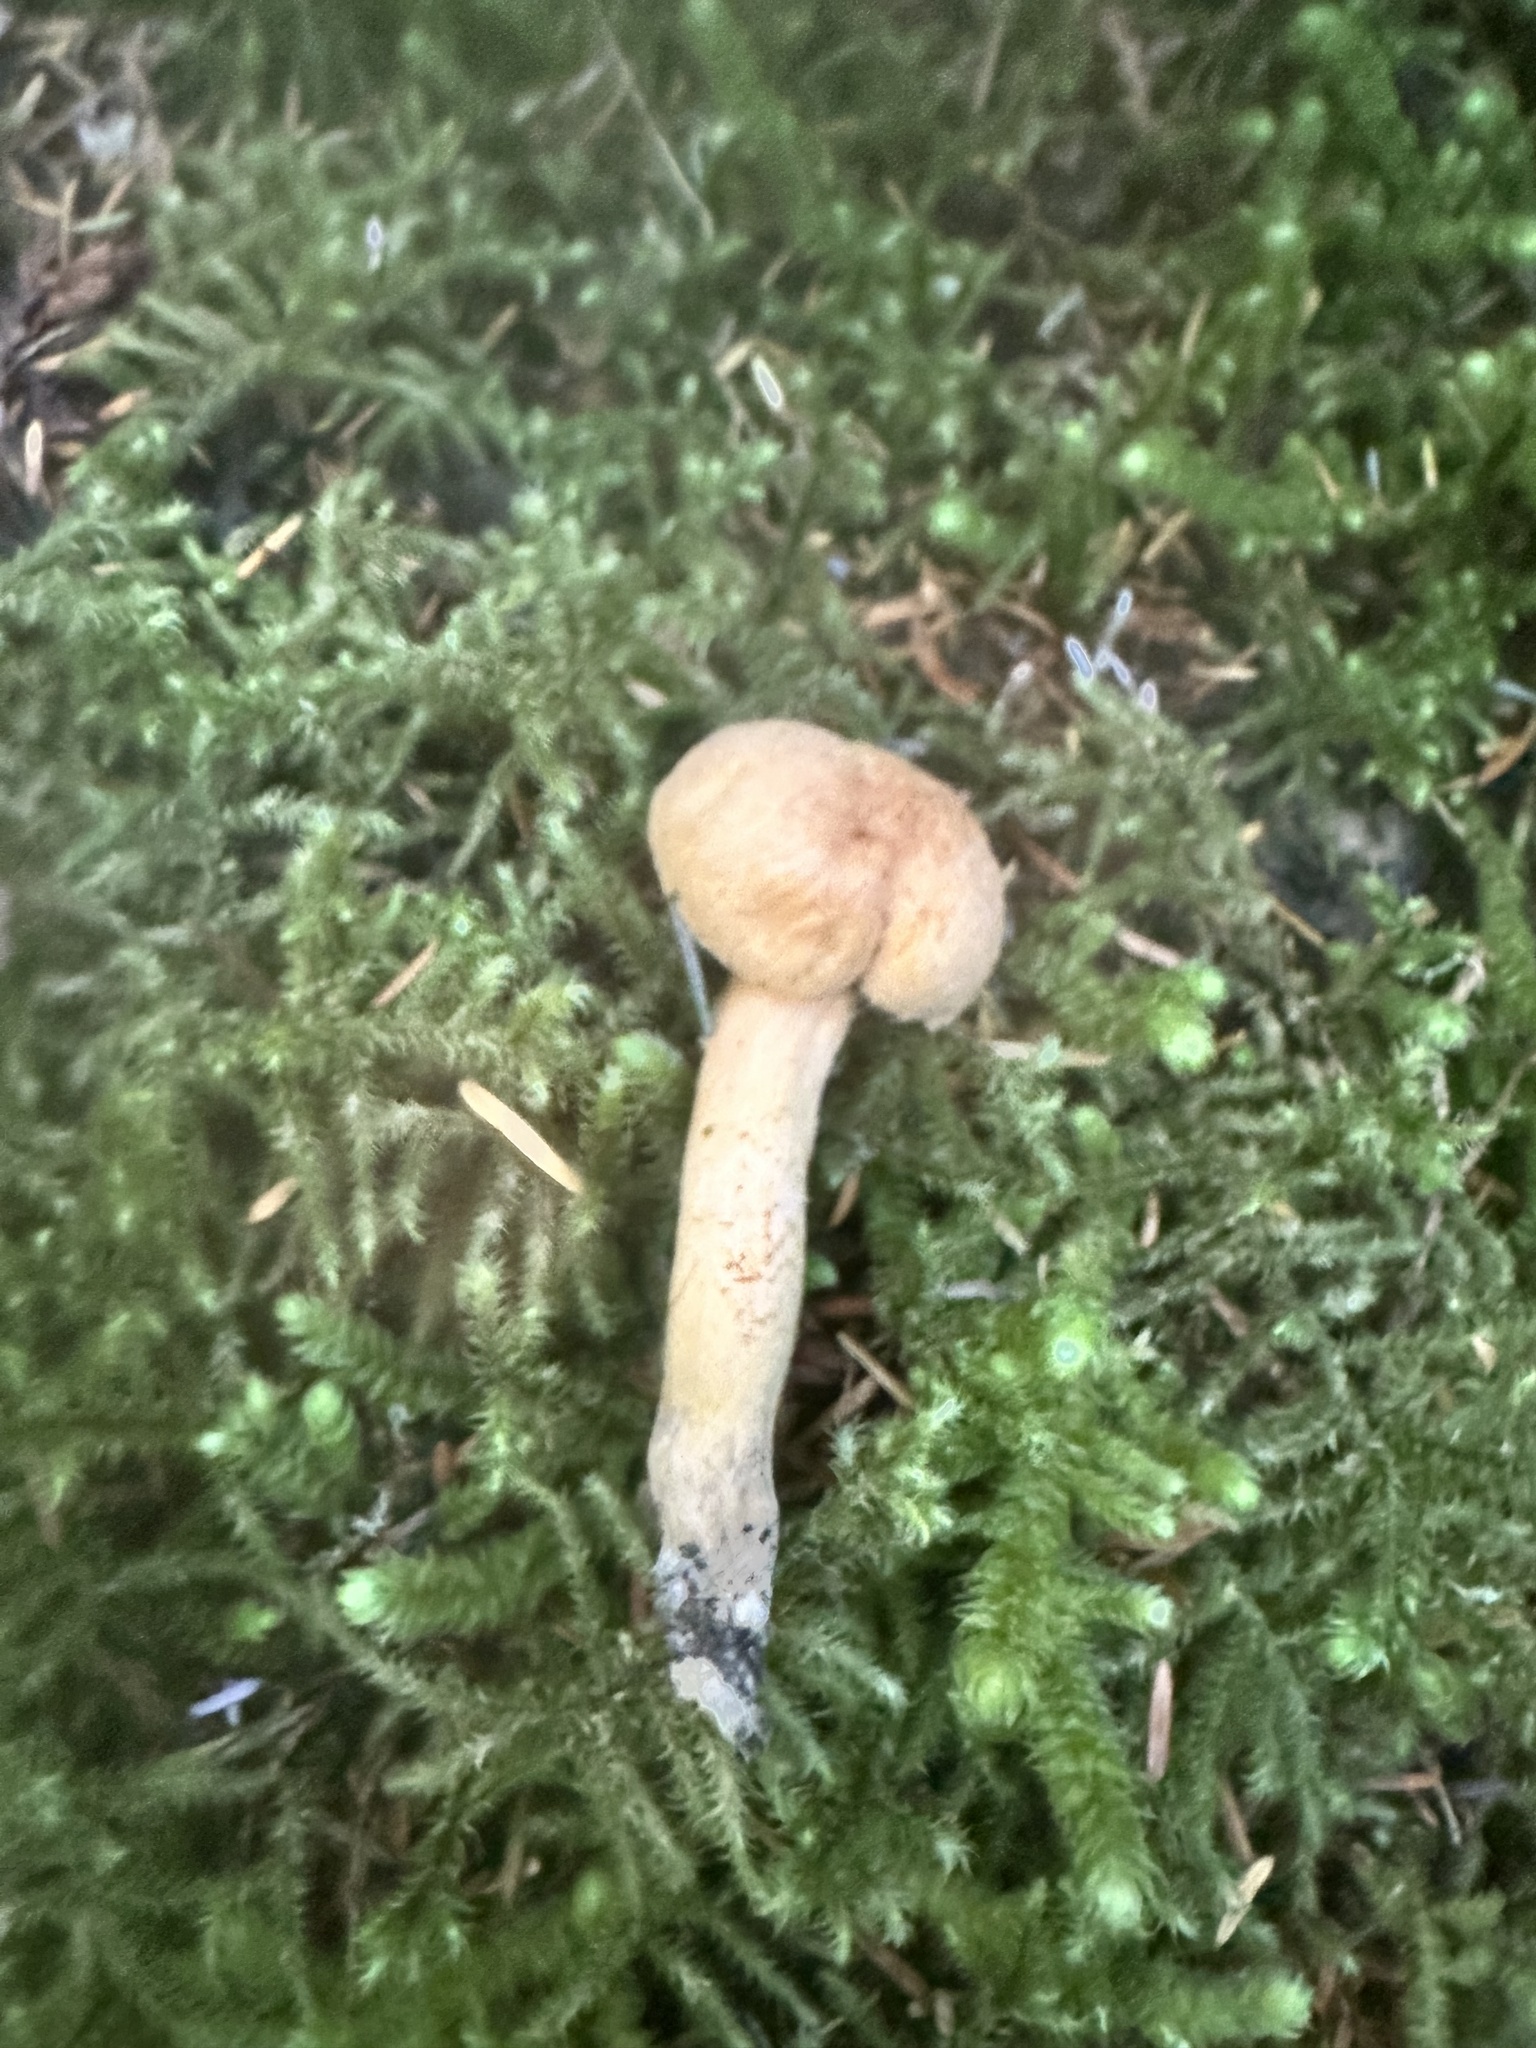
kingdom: Fungi
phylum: Basidiomycota
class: Agaricomycetes
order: Boletales
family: Gomphidiaceae
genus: Chroogomphus
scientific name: Chroogomphus tomentosus
